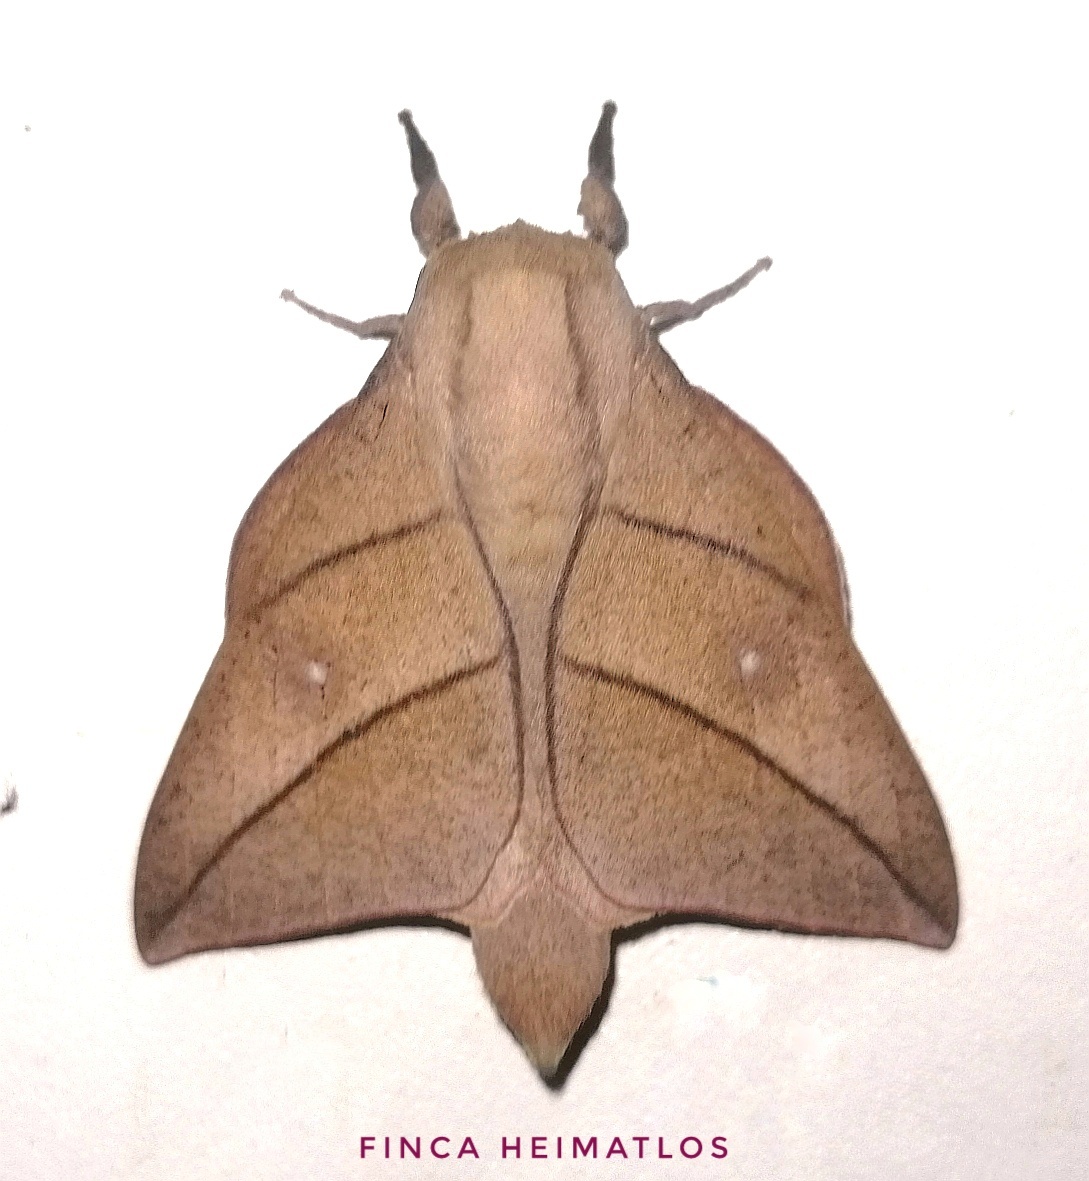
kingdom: Animalia
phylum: Arthropoda
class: Insecta
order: Lepidoptera
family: Saturniidae
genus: Adeloneivaia
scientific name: Adeloneivaia acuta
